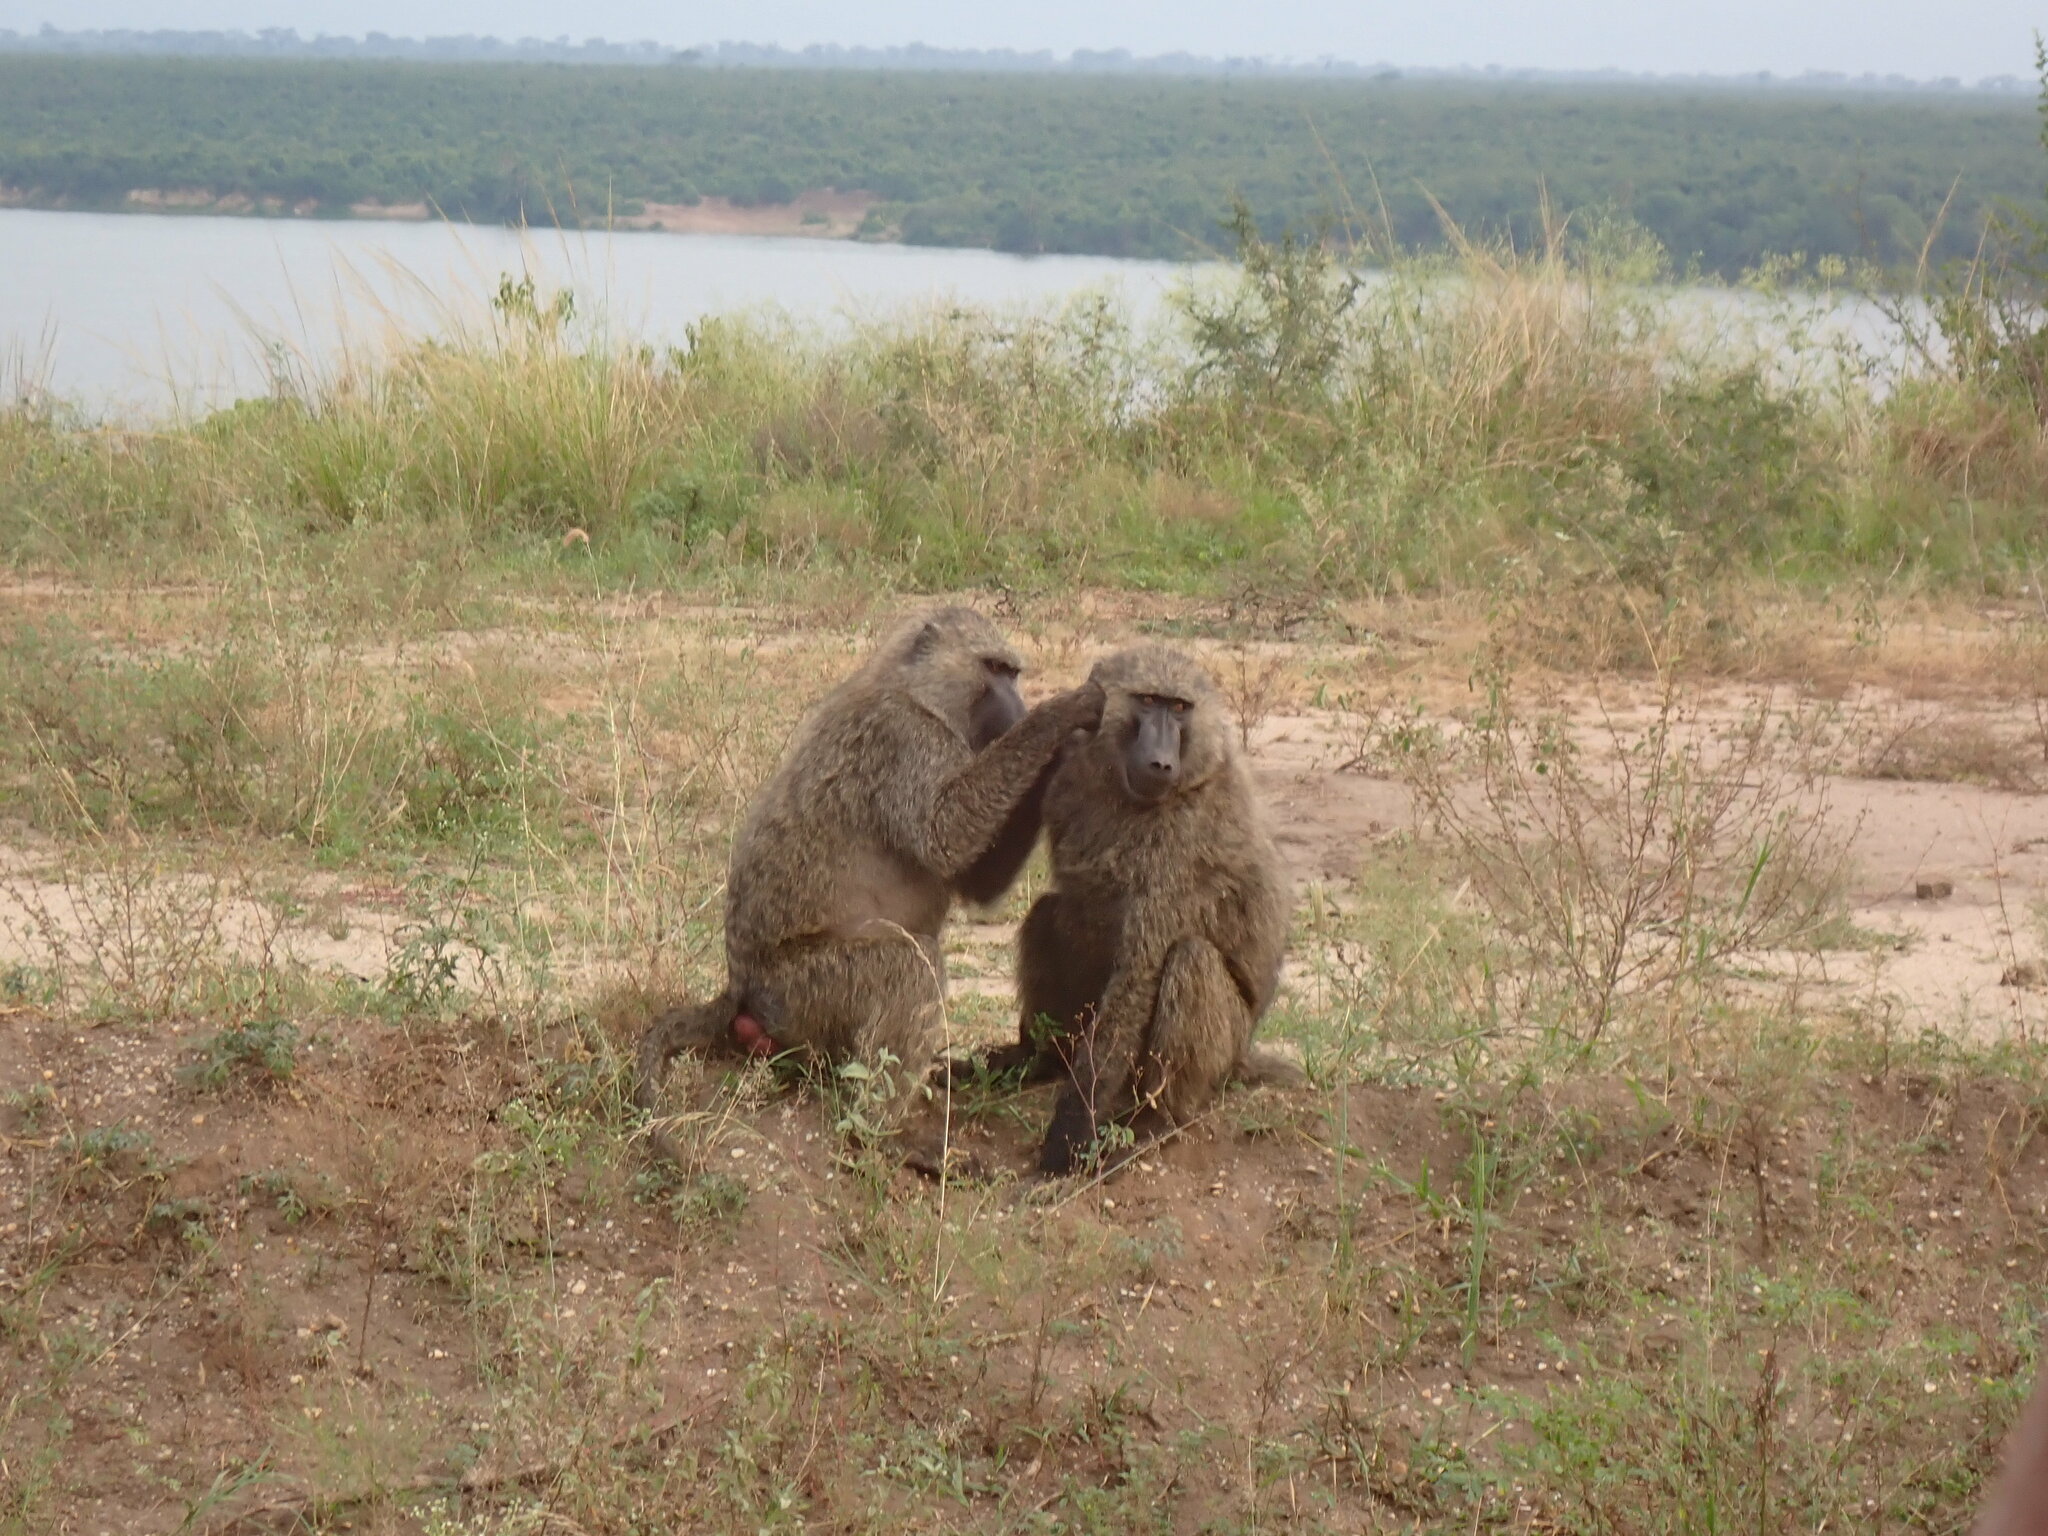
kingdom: Animalia
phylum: Chordata
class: Mammalia
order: Primates
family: Cercopithecidae
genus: Papio
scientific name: Papio anubis
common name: Olive baboon
